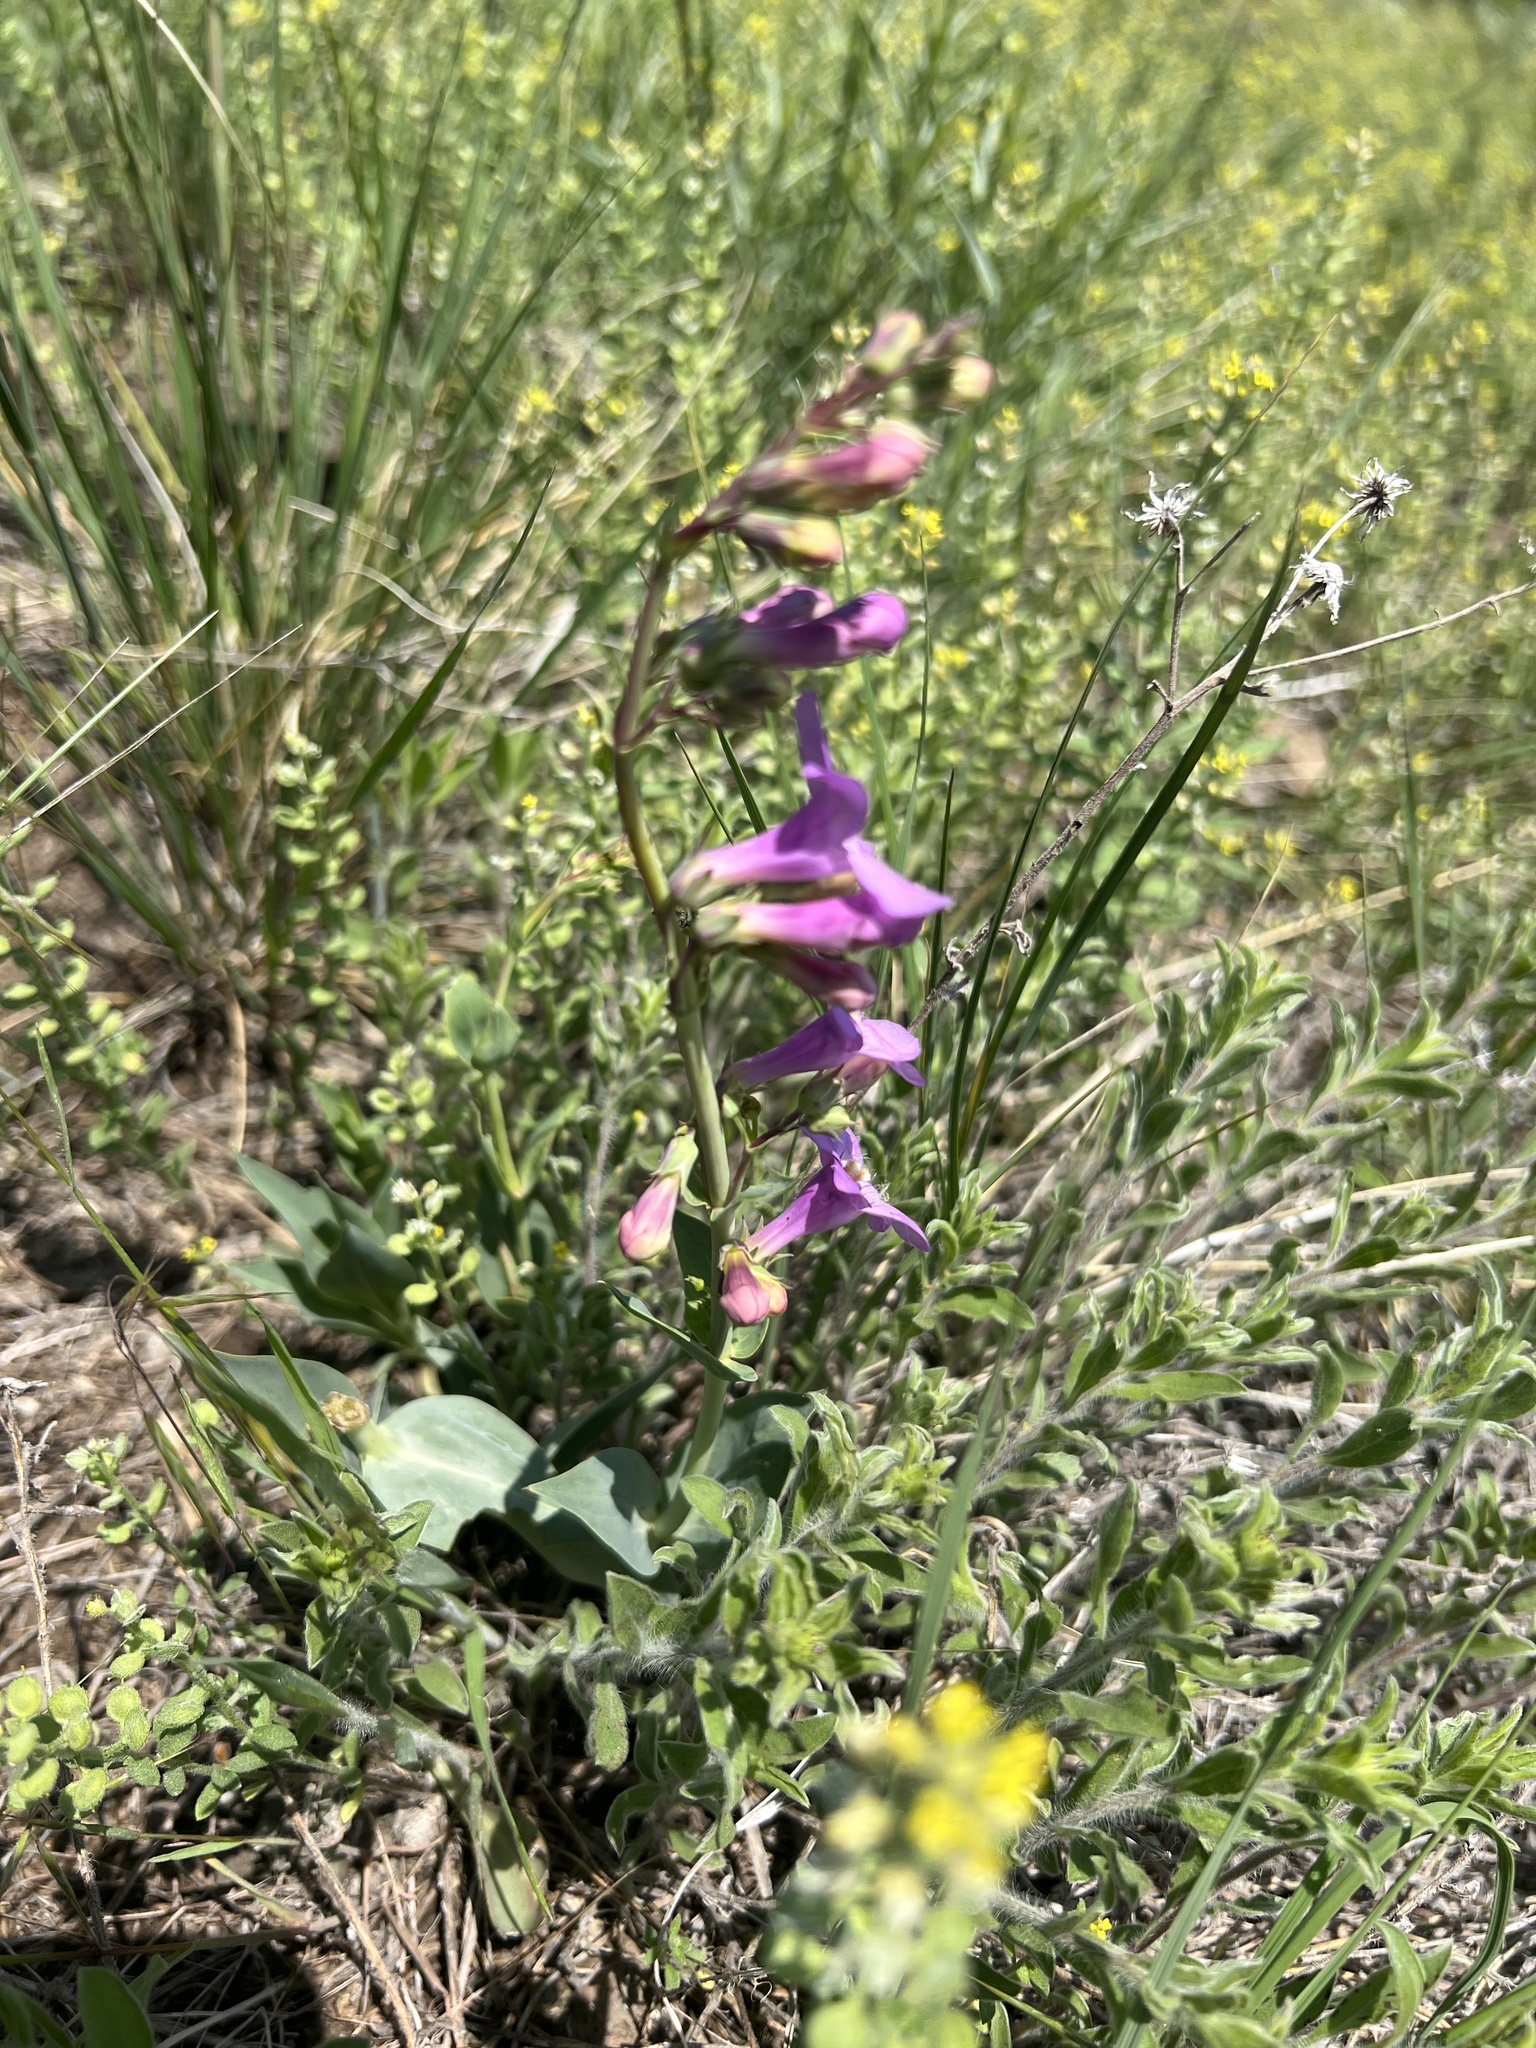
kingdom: Plantae
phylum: Tracheophyta
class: Magnoliopsida
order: Lamiales
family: Plantaginaceae
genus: Penstemon
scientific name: Penstemon secundiflorus
